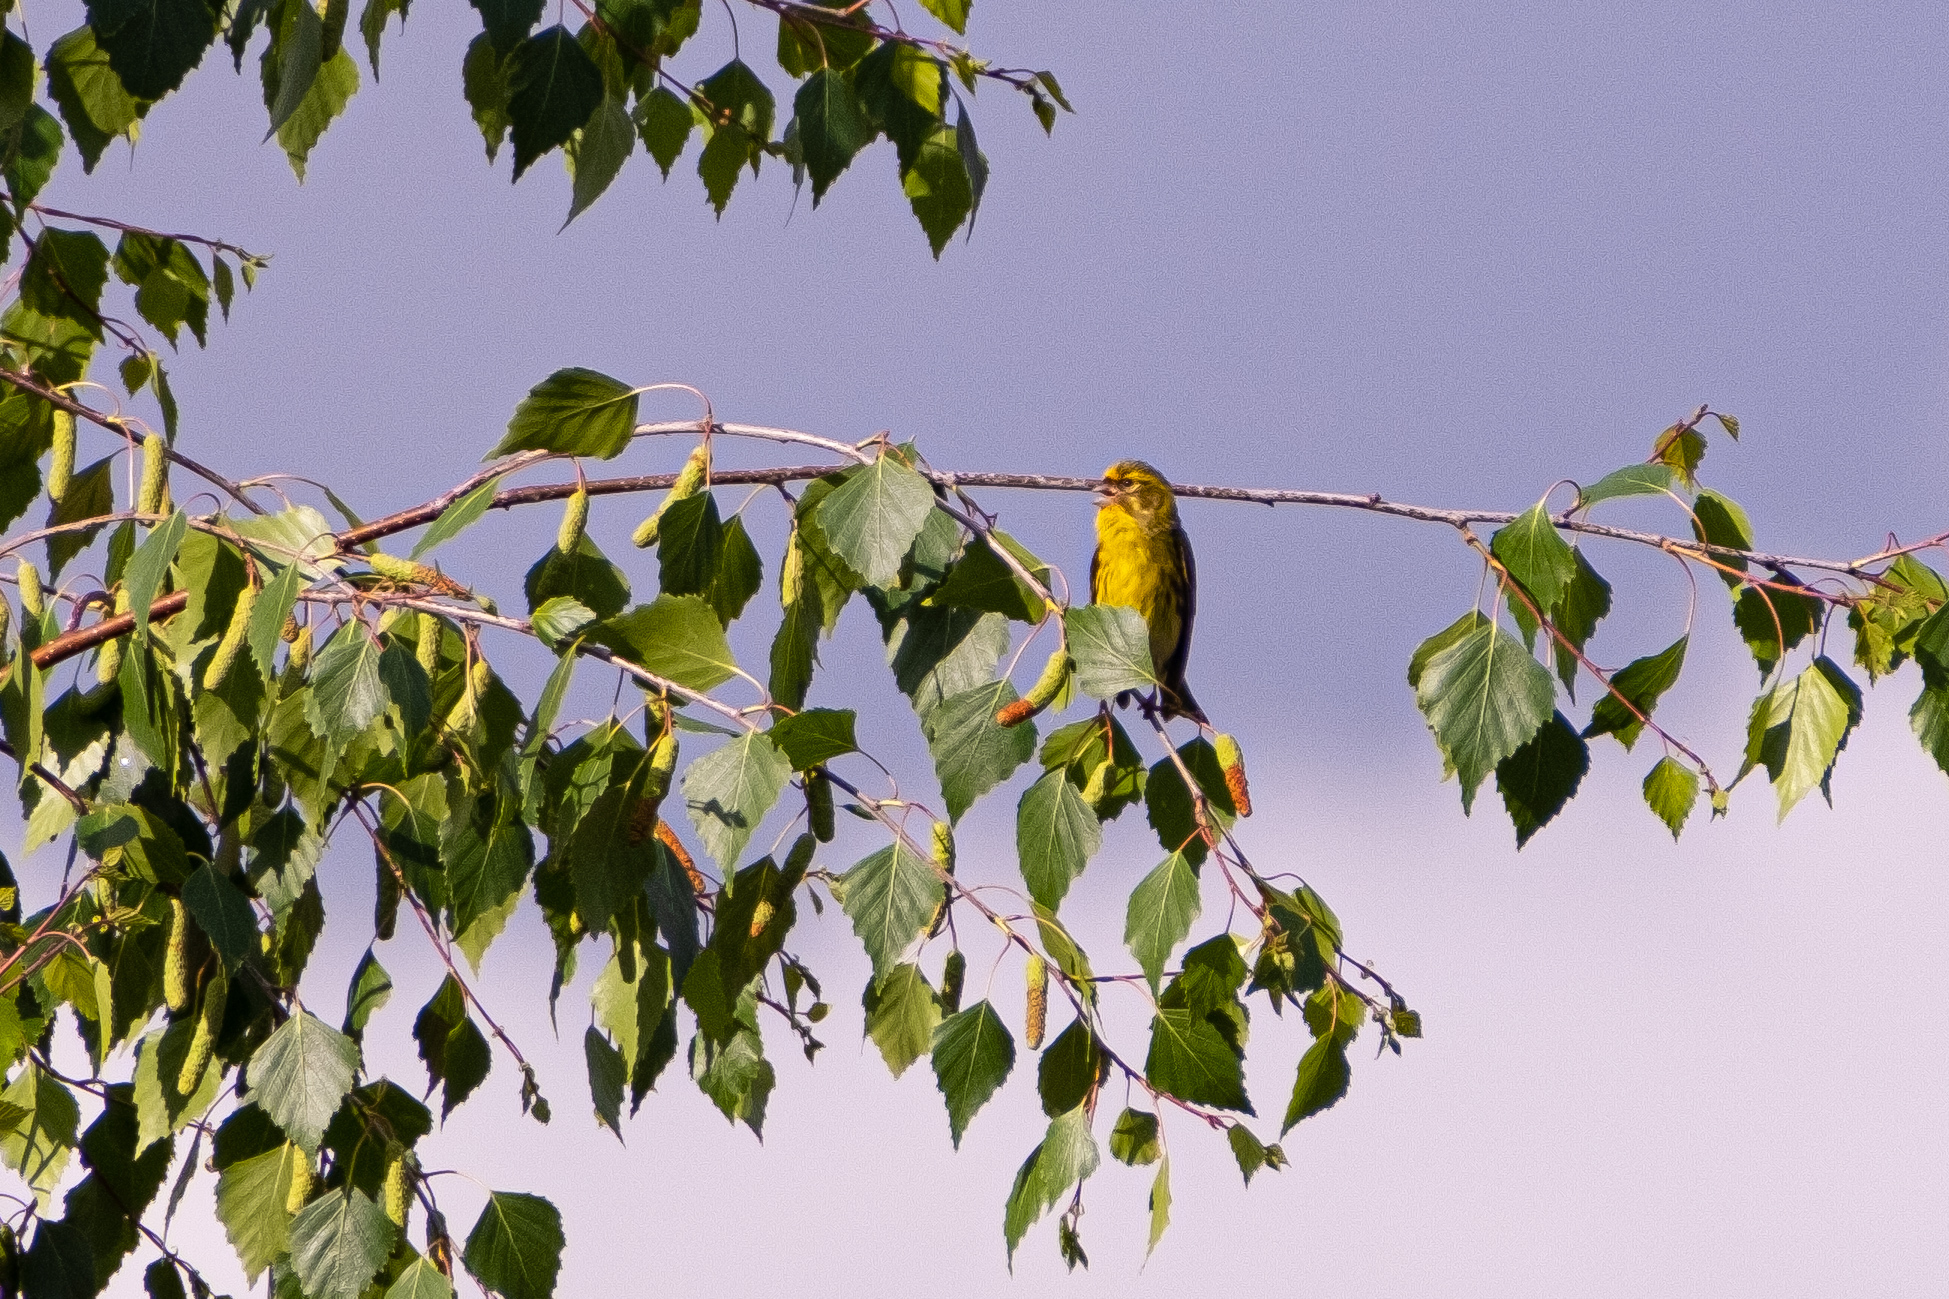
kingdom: Animalia
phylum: Chordata
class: Aves
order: Passeriformes
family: Fringillidae
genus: Serinus
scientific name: Serinus serinus
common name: European serin
